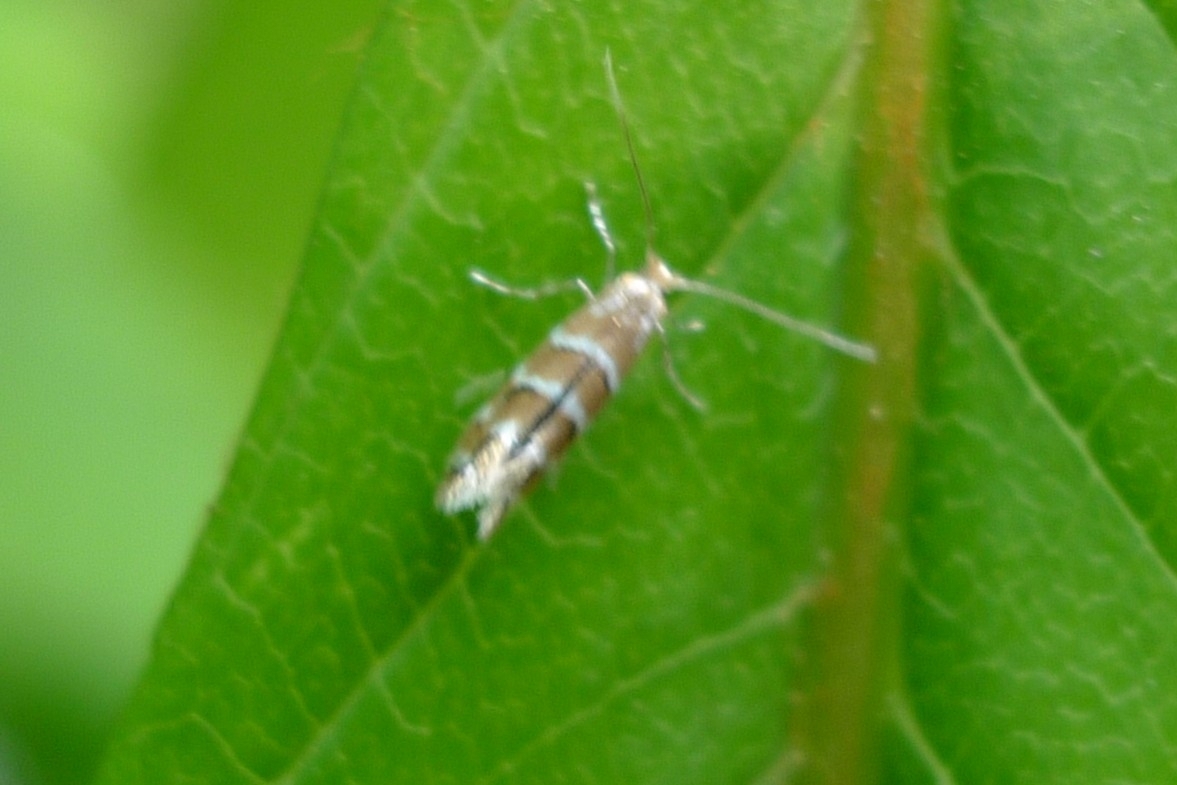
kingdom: Animalia
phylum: Arthropoda
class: Insecta
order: Lepidoptera
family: Gracillariidae
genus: Cameraria
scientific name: Cameraria ohridella
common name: Horse-chestnut leaf-miner
